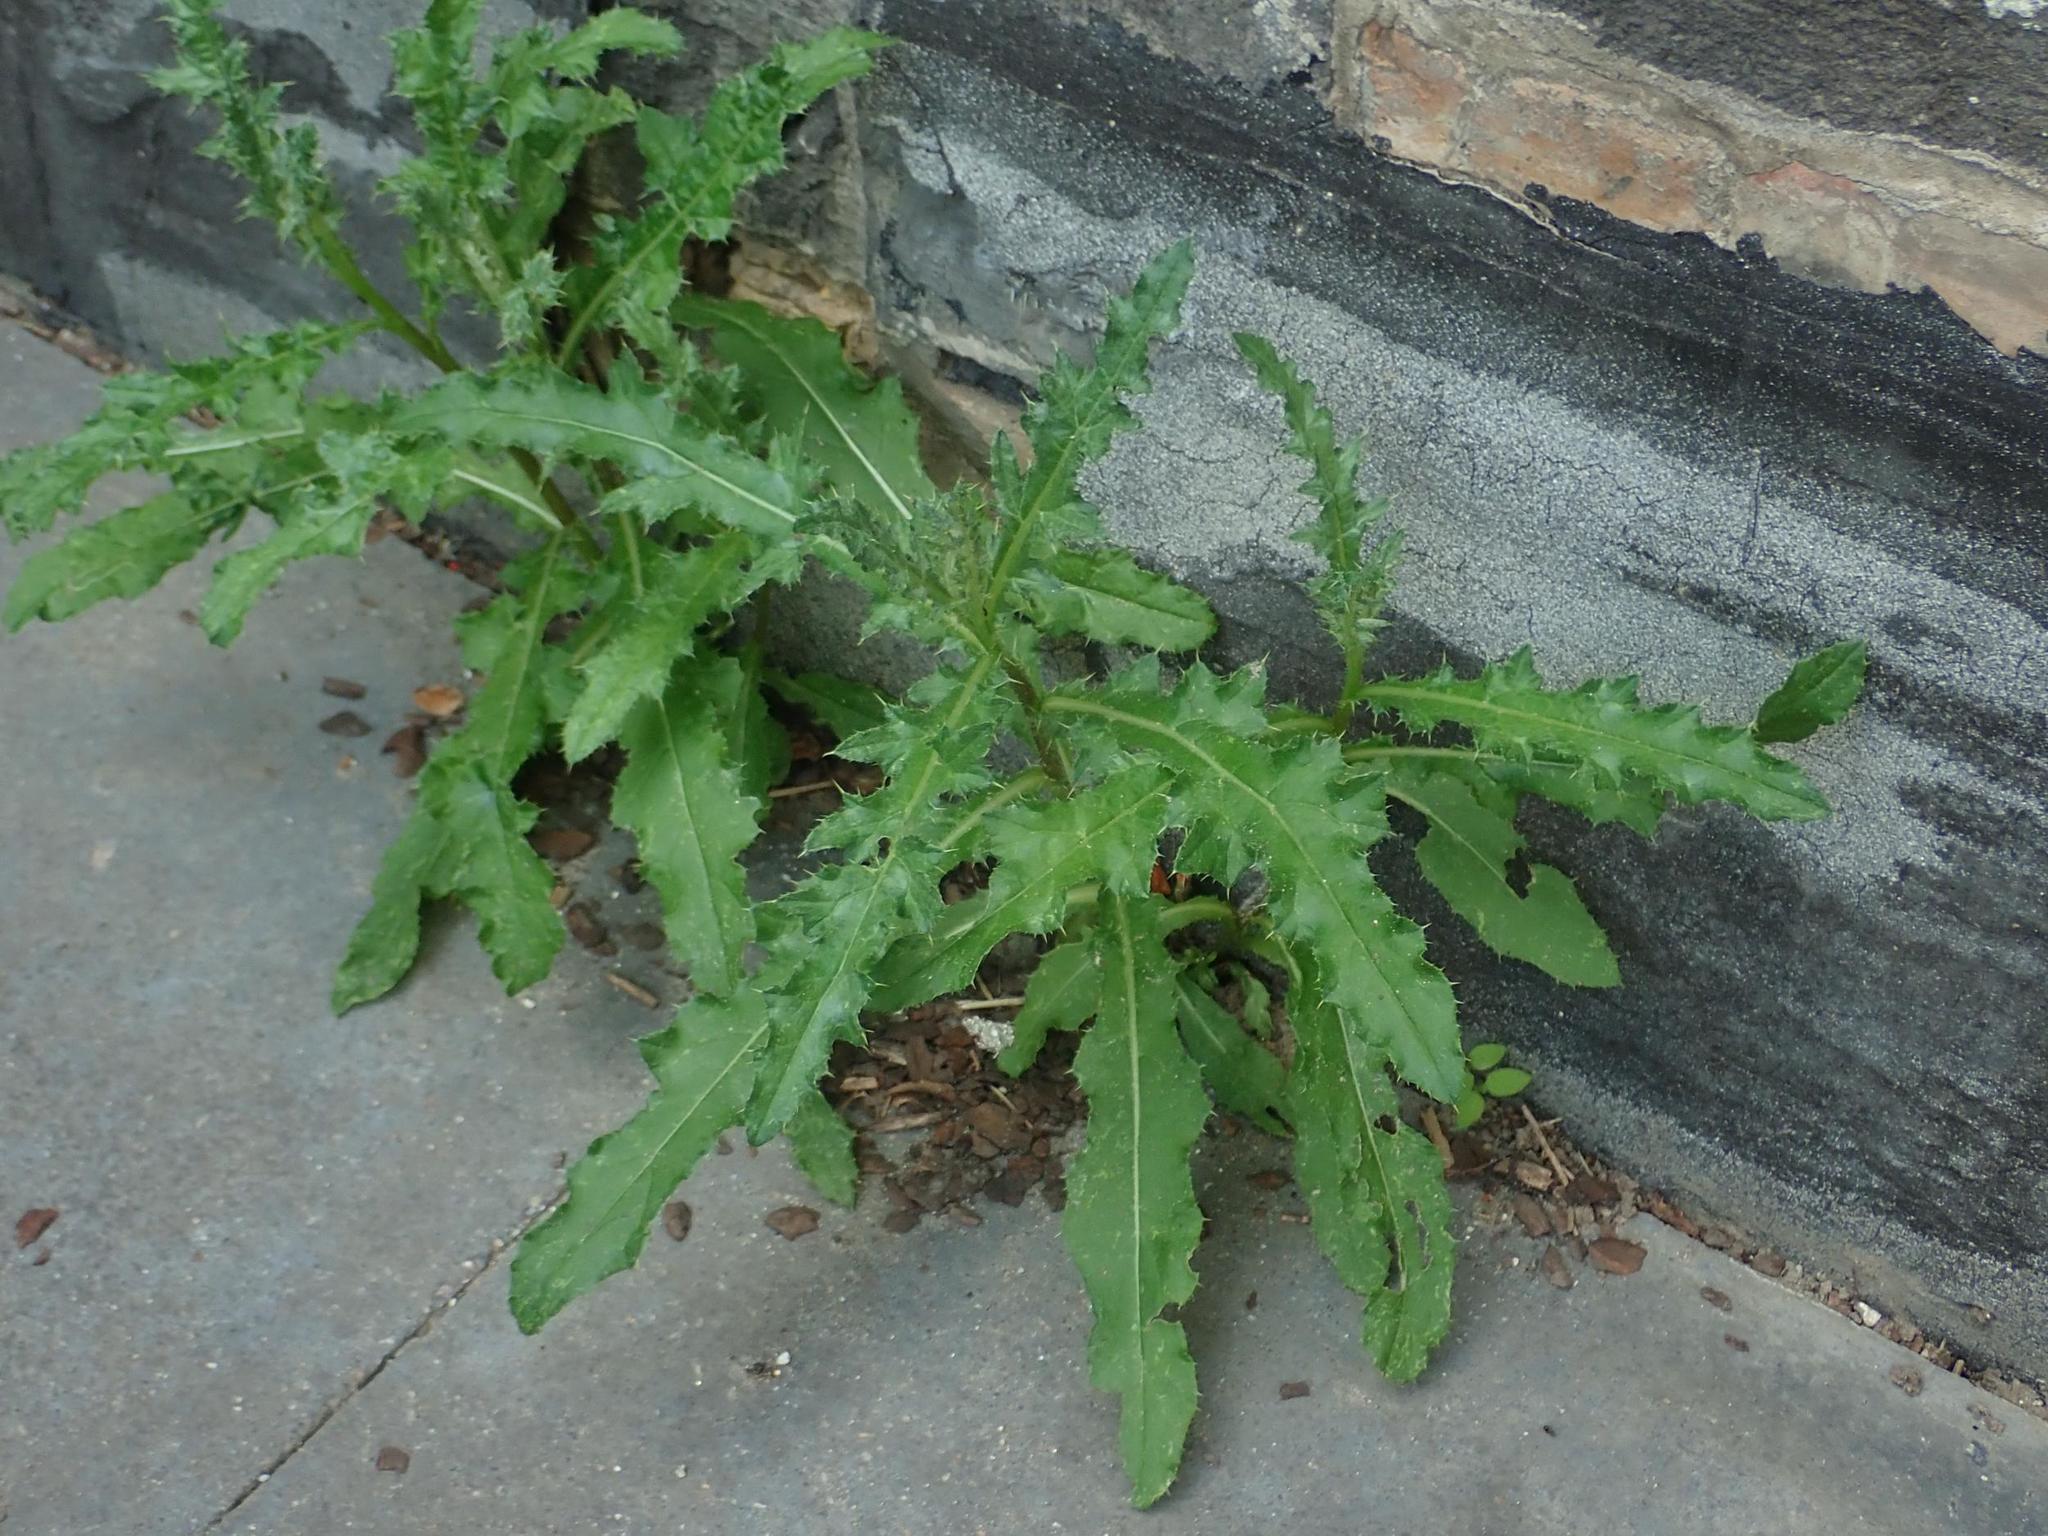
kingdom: Plantae
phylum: Tracheophyta
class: Magnoliopsida
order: Asterales
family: Asteraceae
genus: Cirsium
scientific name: Cirsium arvense
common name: Creeping thistle
